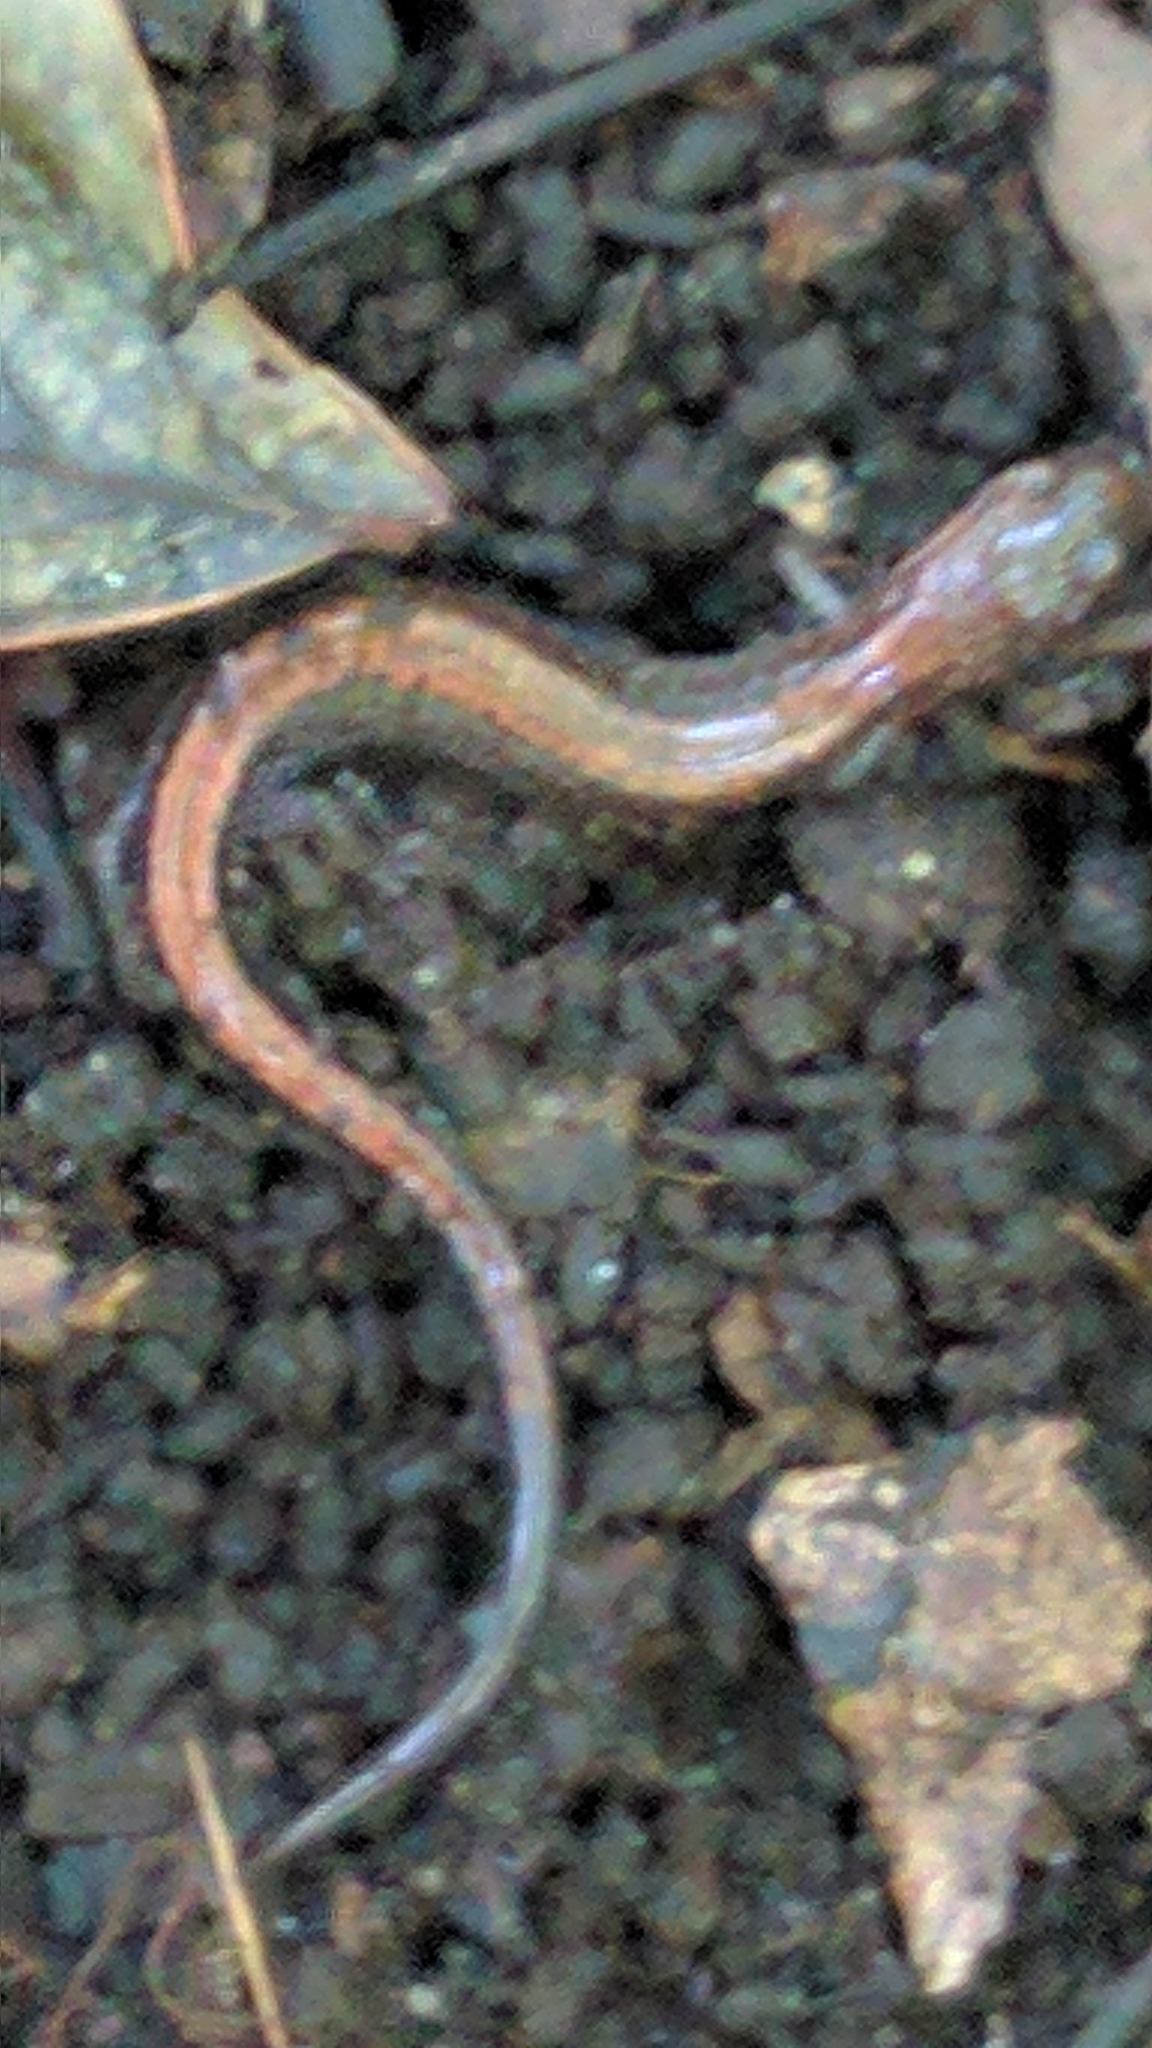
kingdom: Animalia
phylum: Chordata
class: Amphibia
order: Caudata
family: Plethodontidae
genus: Plethodon
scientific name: Plethodon cinereus
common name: Redback salamander
